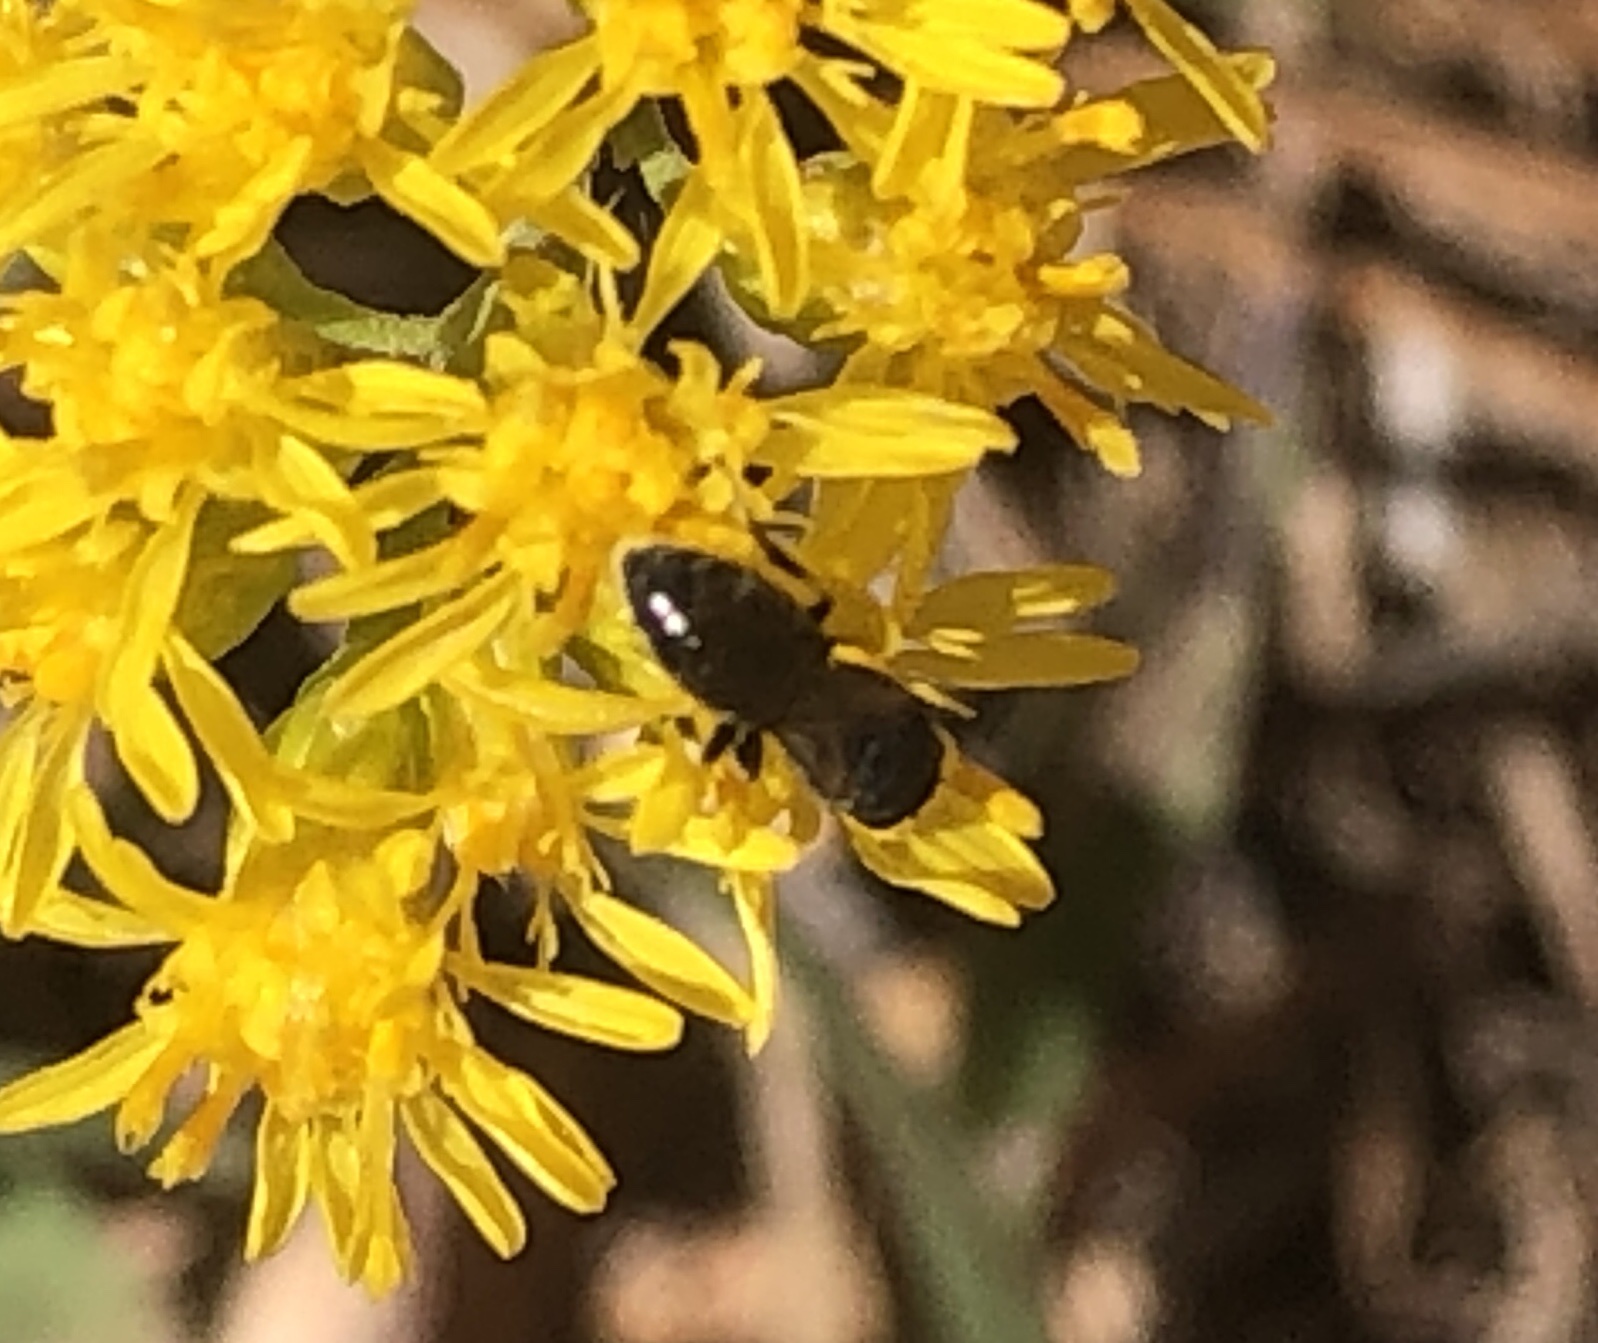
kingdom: Animalia
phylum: Arthropoda
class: Insecta
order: Hymenoptera
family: Colletidae
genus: Hylaeus
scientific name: Hylaeus
